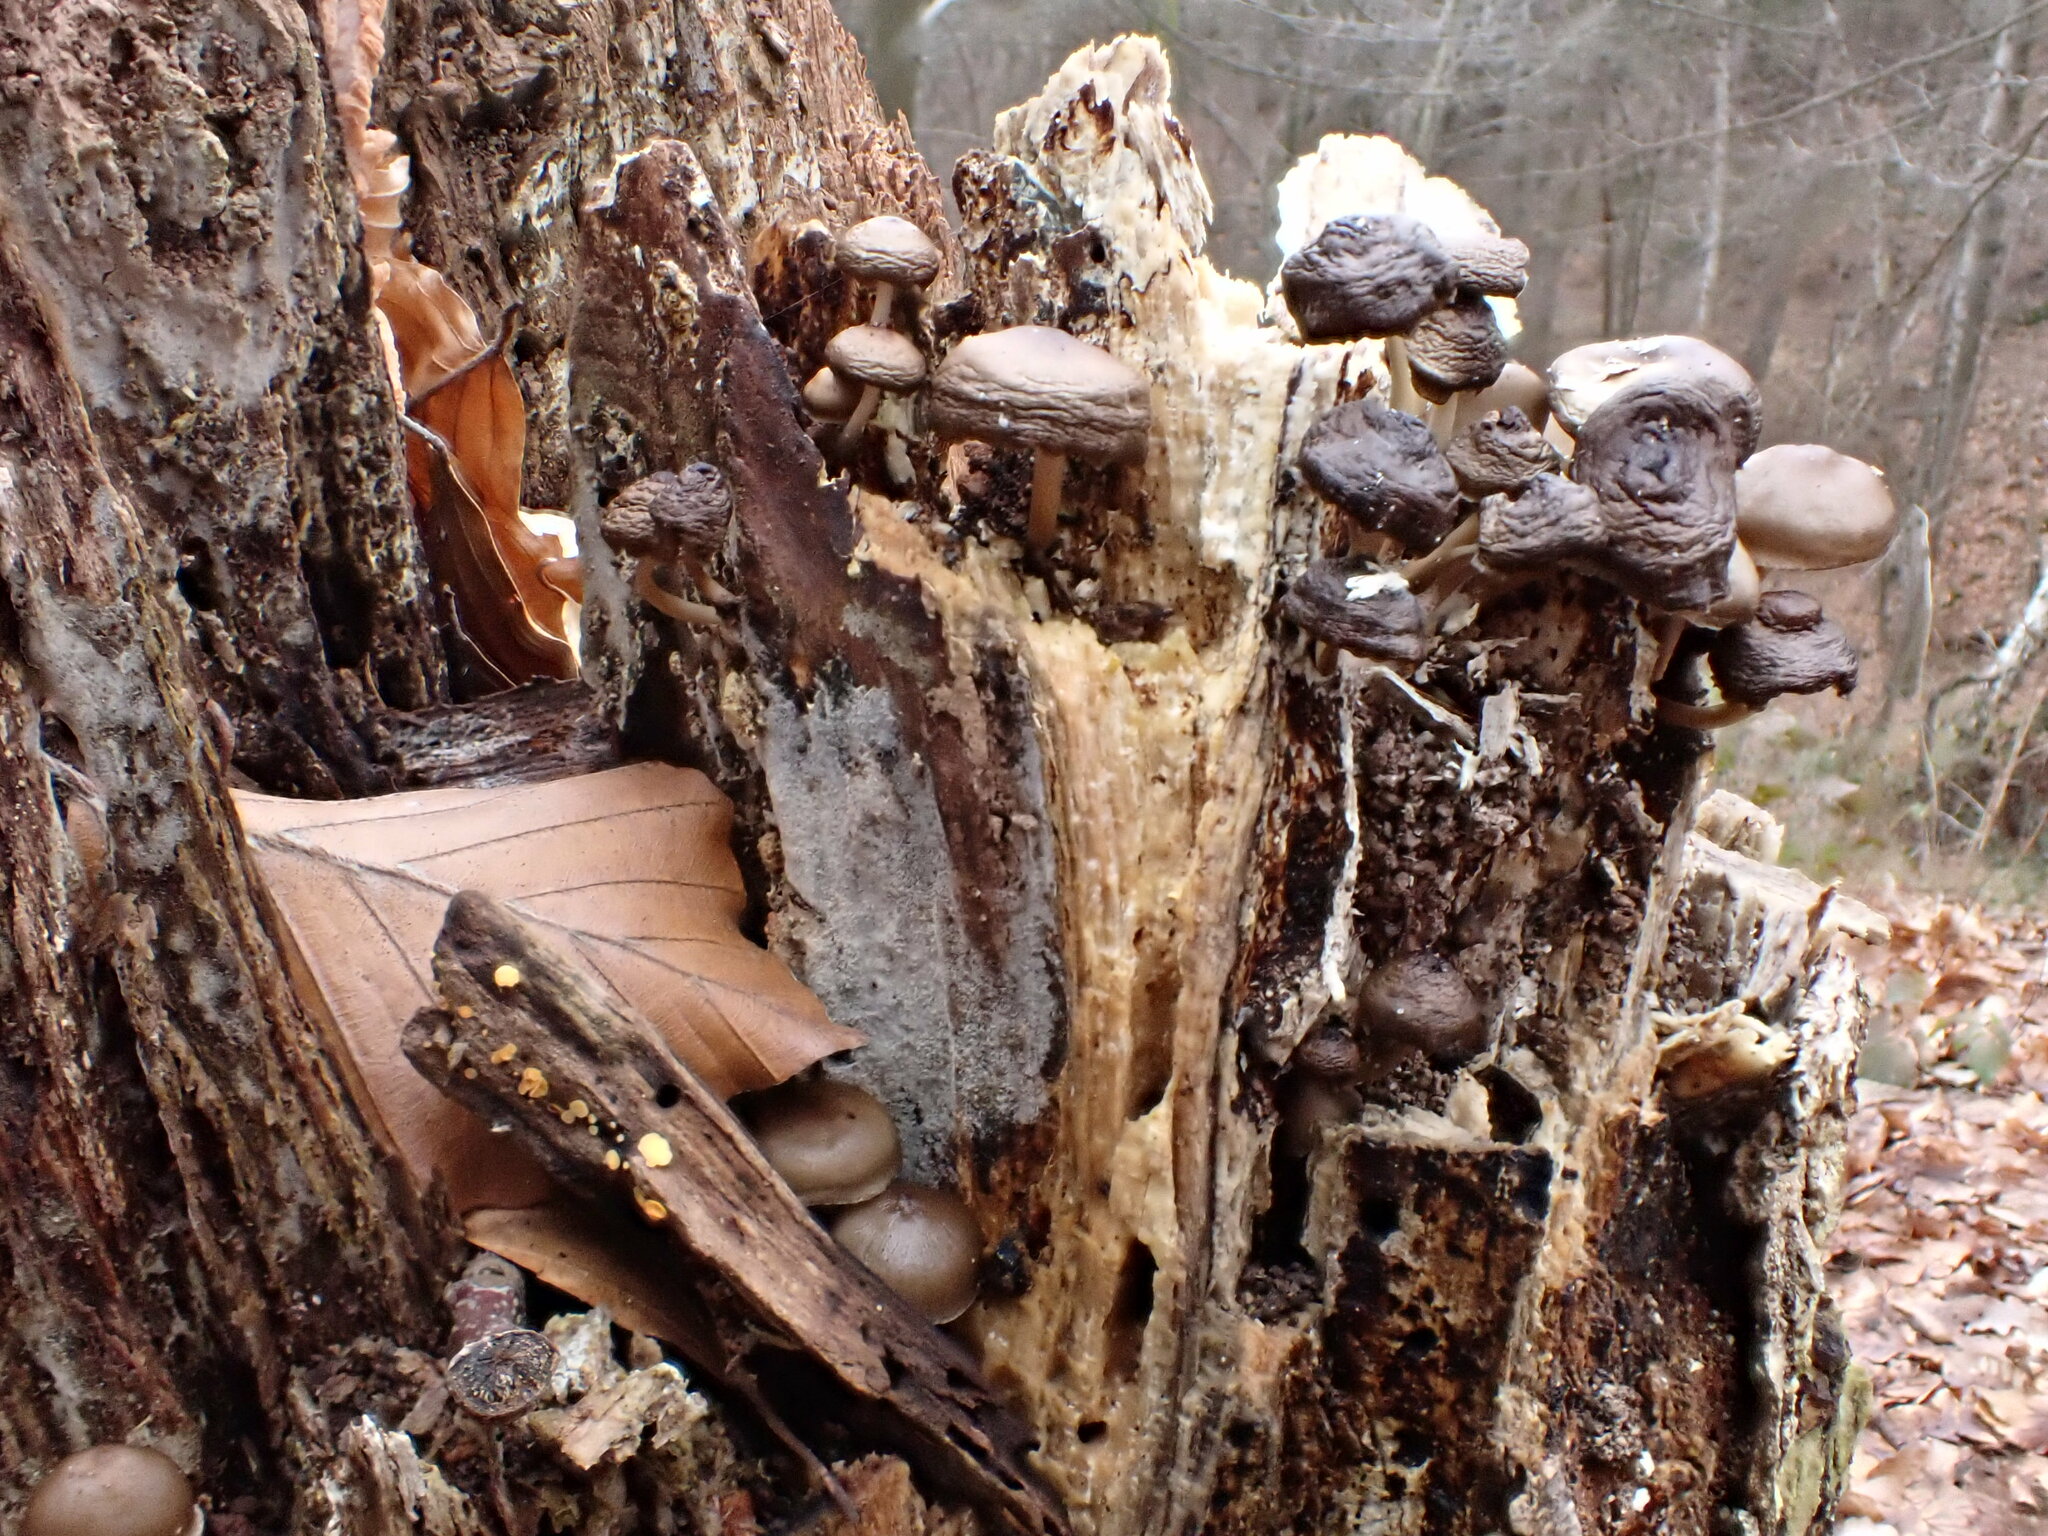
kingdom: Fungi
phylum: Basidiomycota
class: Agaricomycetes
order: Agaricales
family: Mycenaceae
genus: Mycena
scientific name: Mycena tintinnabulum
